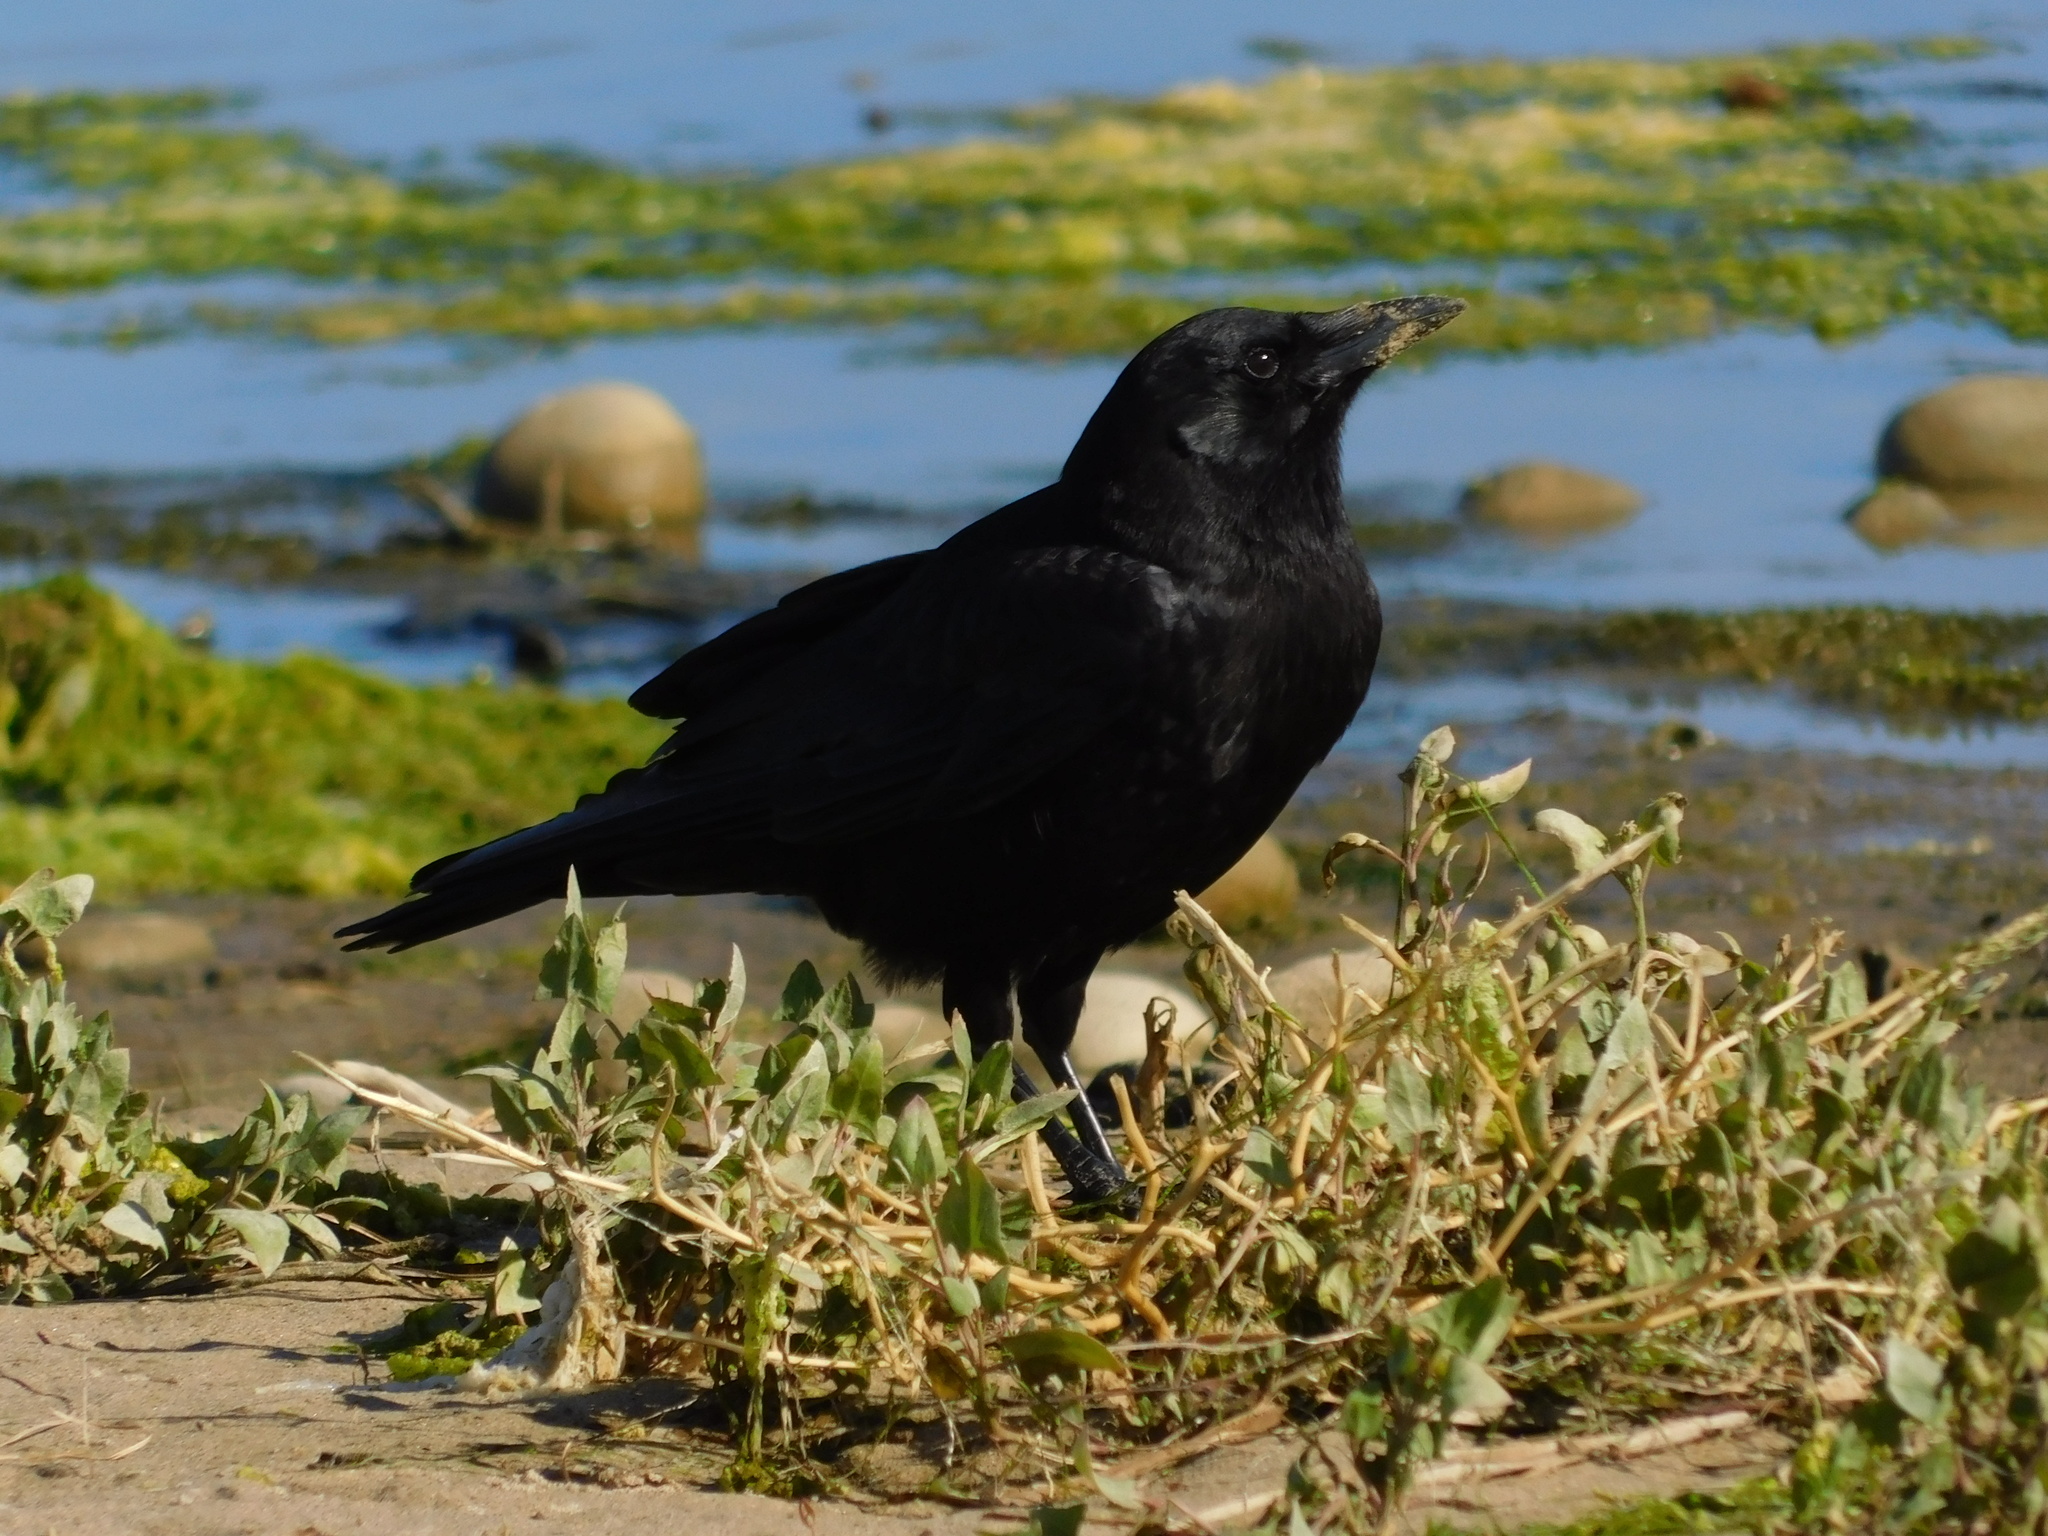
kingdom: Animalia
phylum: Chordata
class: Aves
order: Passeriformes
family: Corvidae
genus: Corvus
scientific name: Corvus brachyrhynchos
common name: American crow
